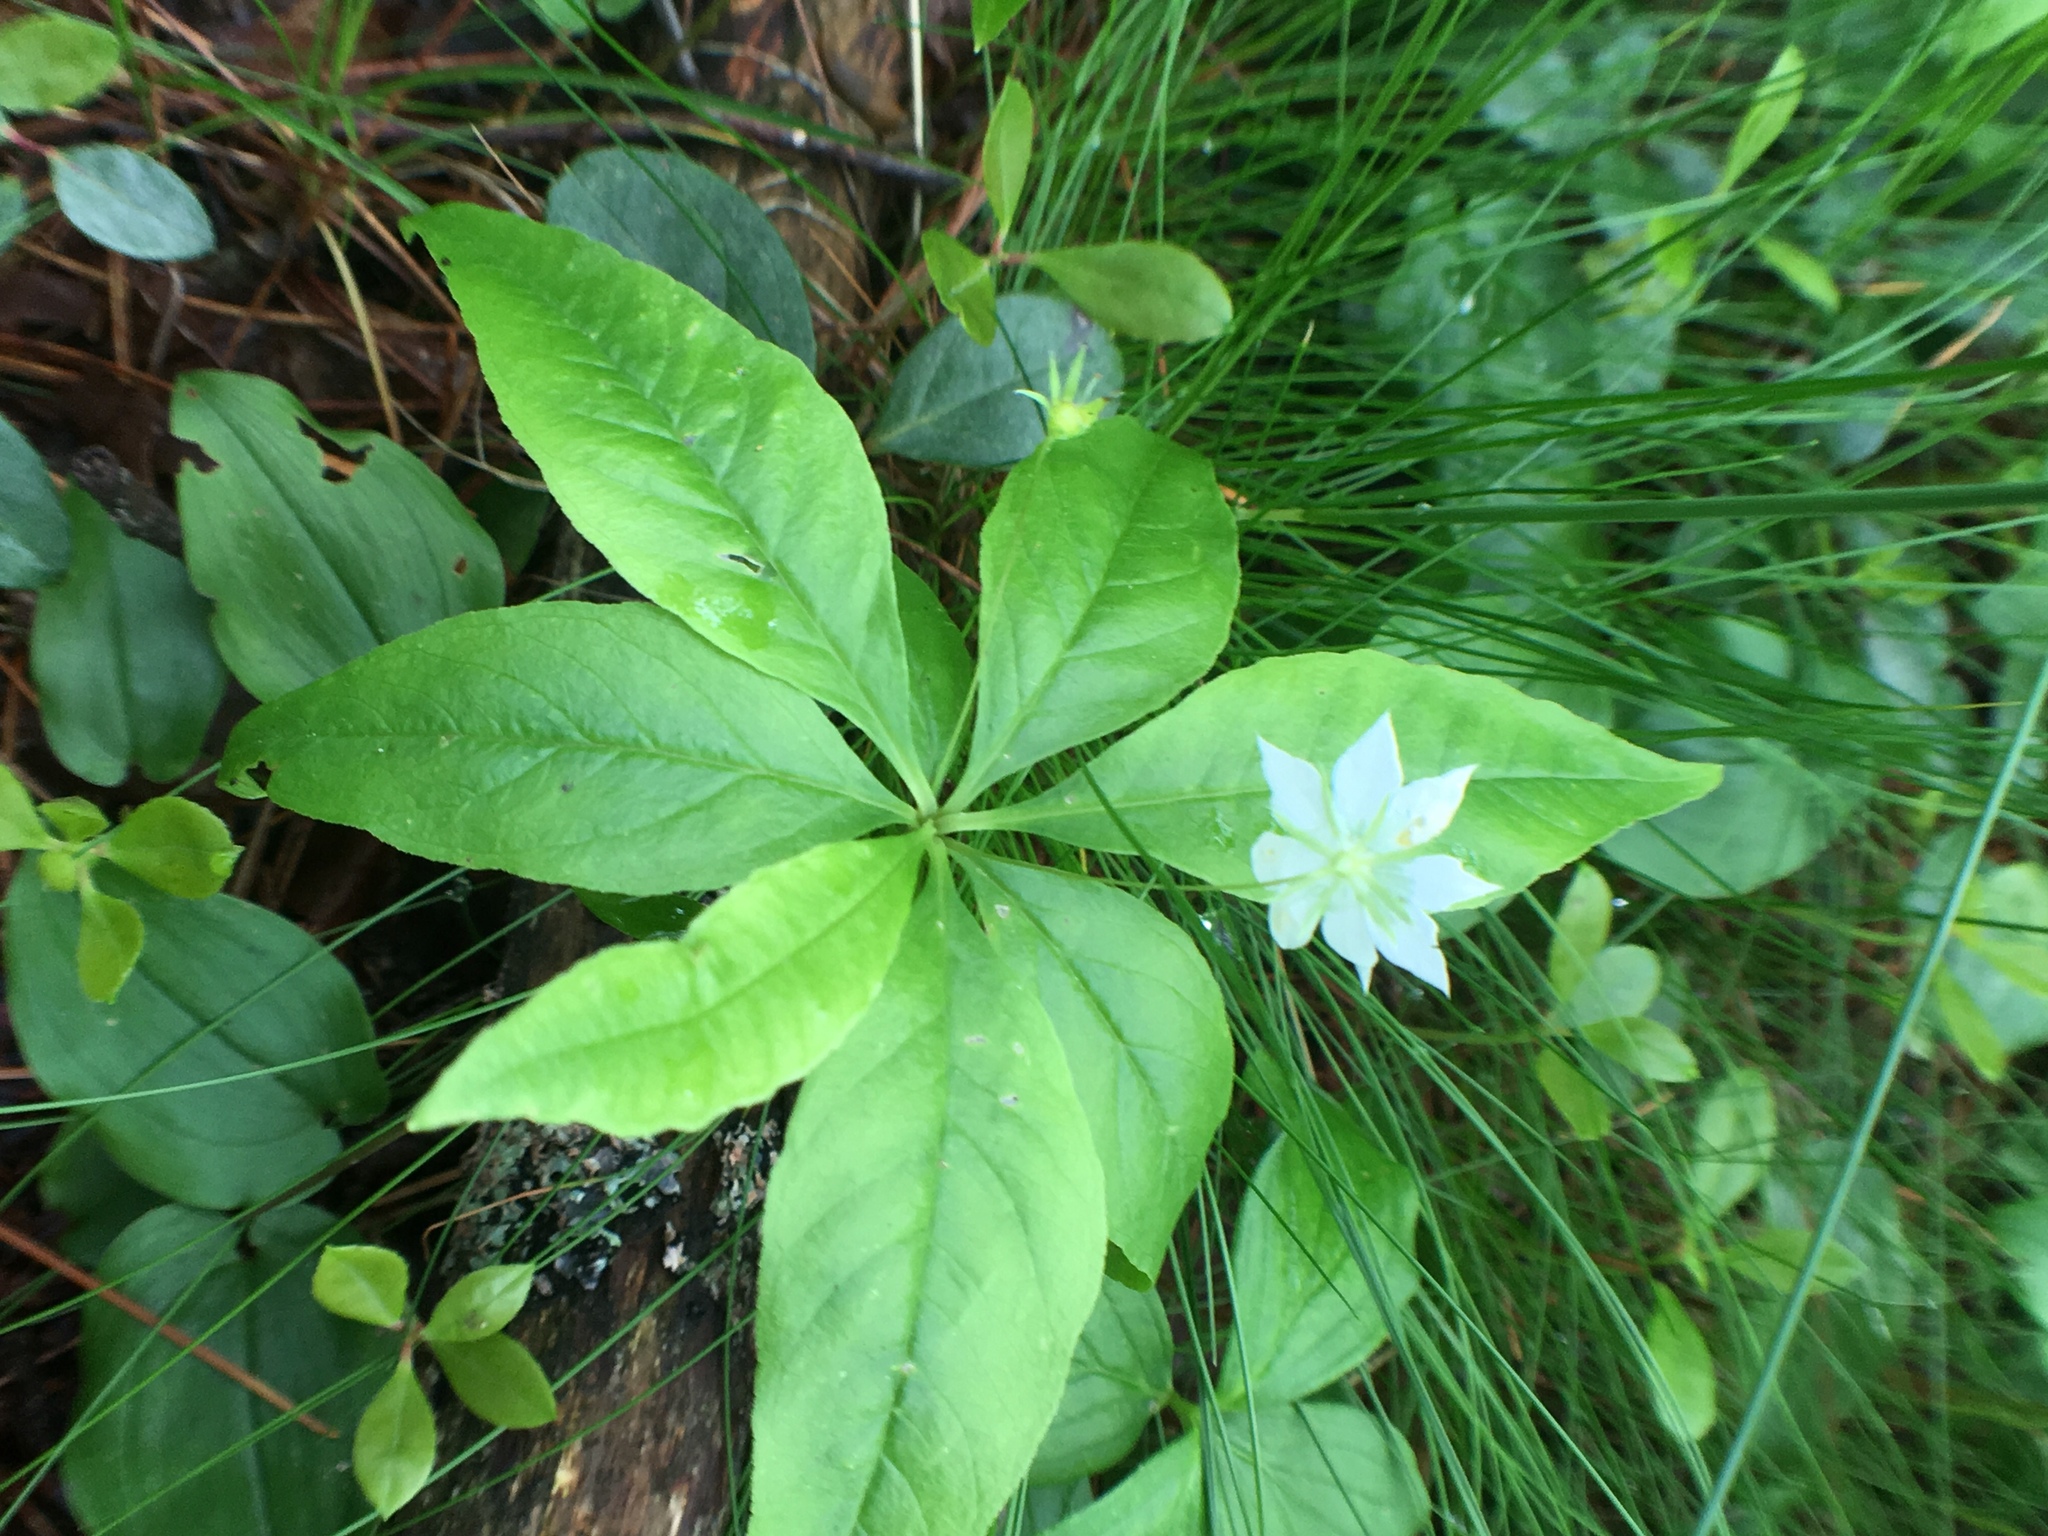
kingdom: Plantae
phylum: Tracheophyta
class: Magnoliopsida
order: Ericales
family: Primulaceae
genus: Lysimachia
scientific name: Lysimachia borealis
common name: American starflower
